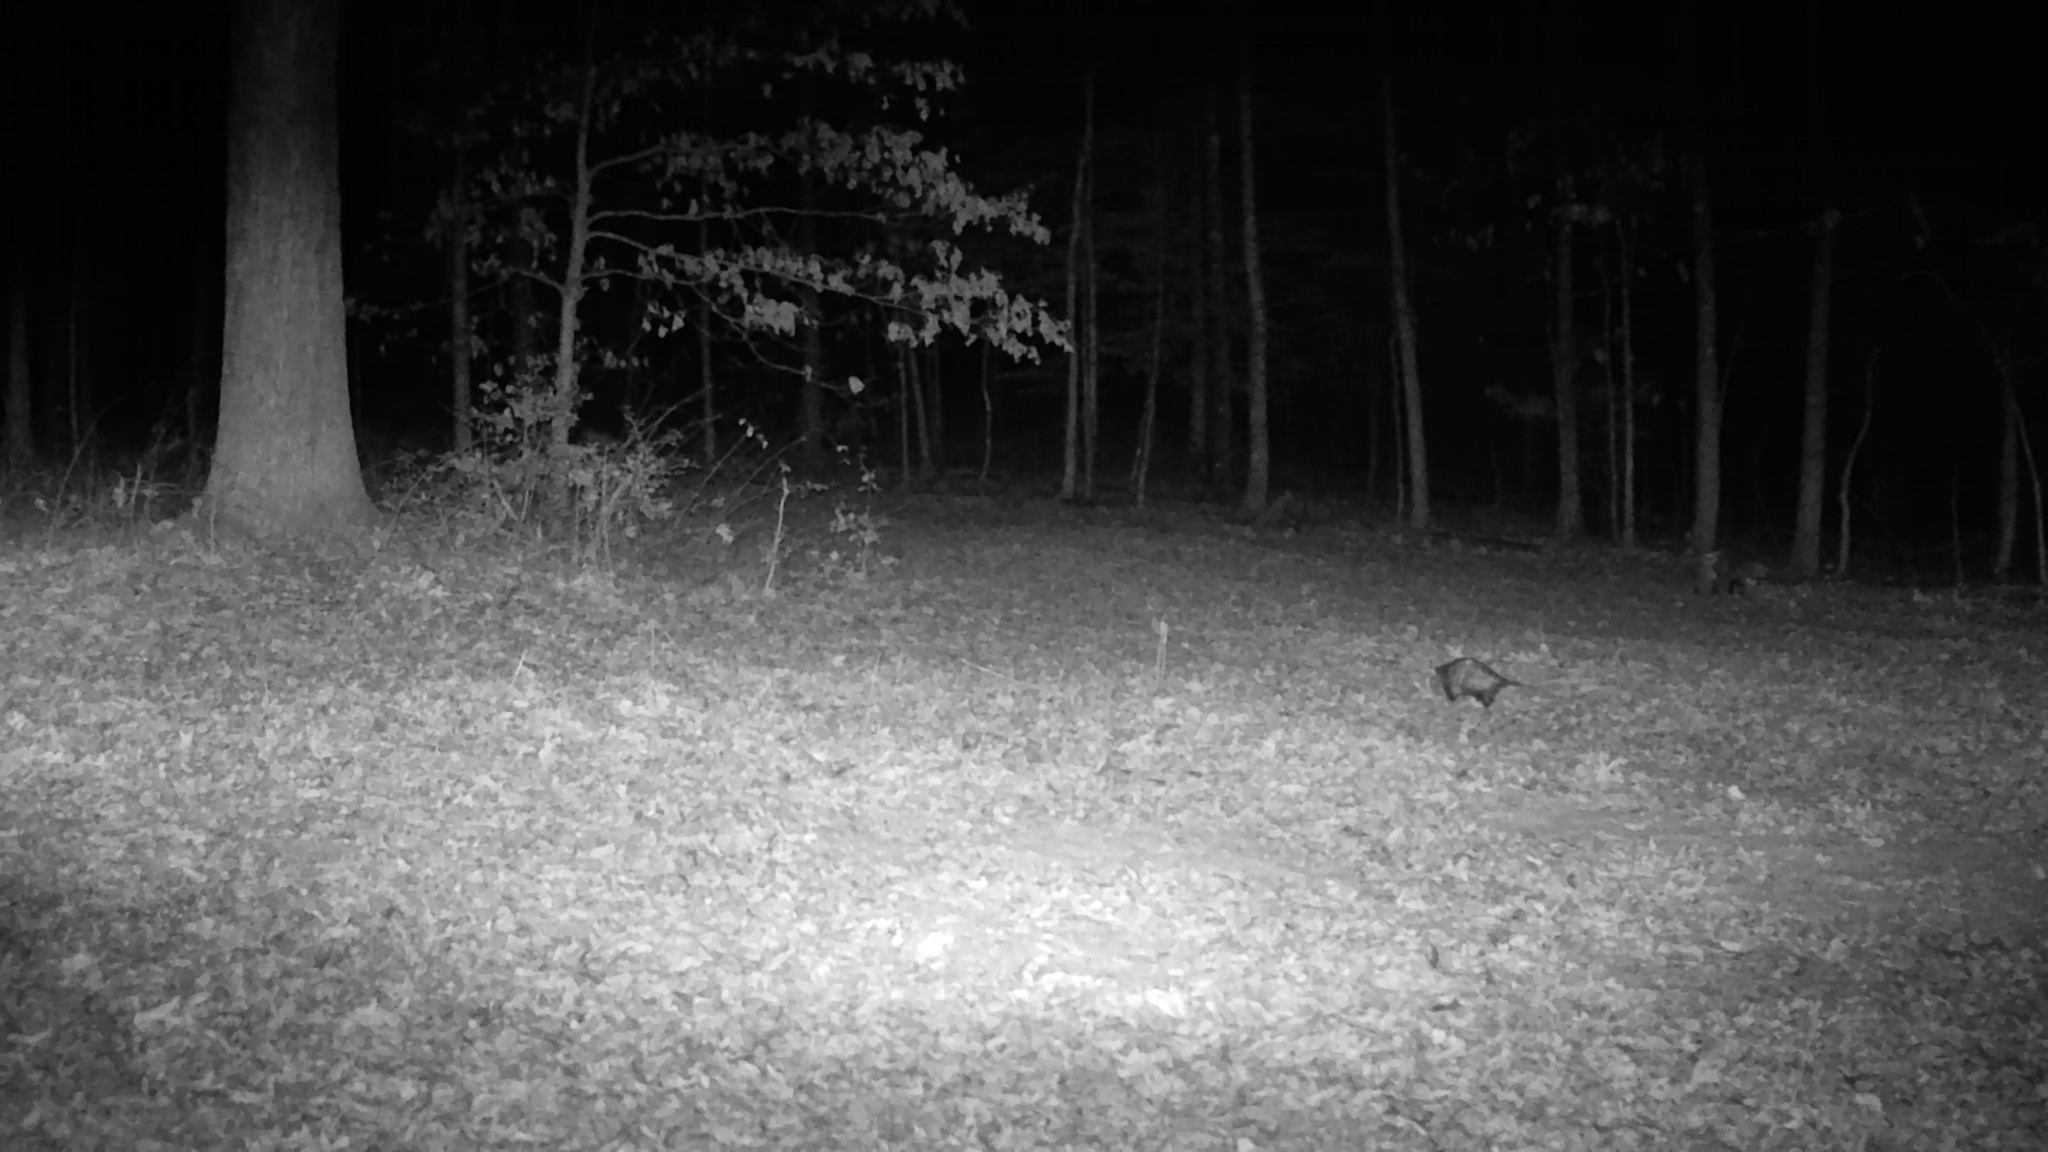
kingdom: Animalia
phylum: Chordata
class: Mammalia
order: Didelphimorphia
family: Didelphidae
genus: Didelphis
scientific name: Didelphis virginiana
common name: Virginia opossum
